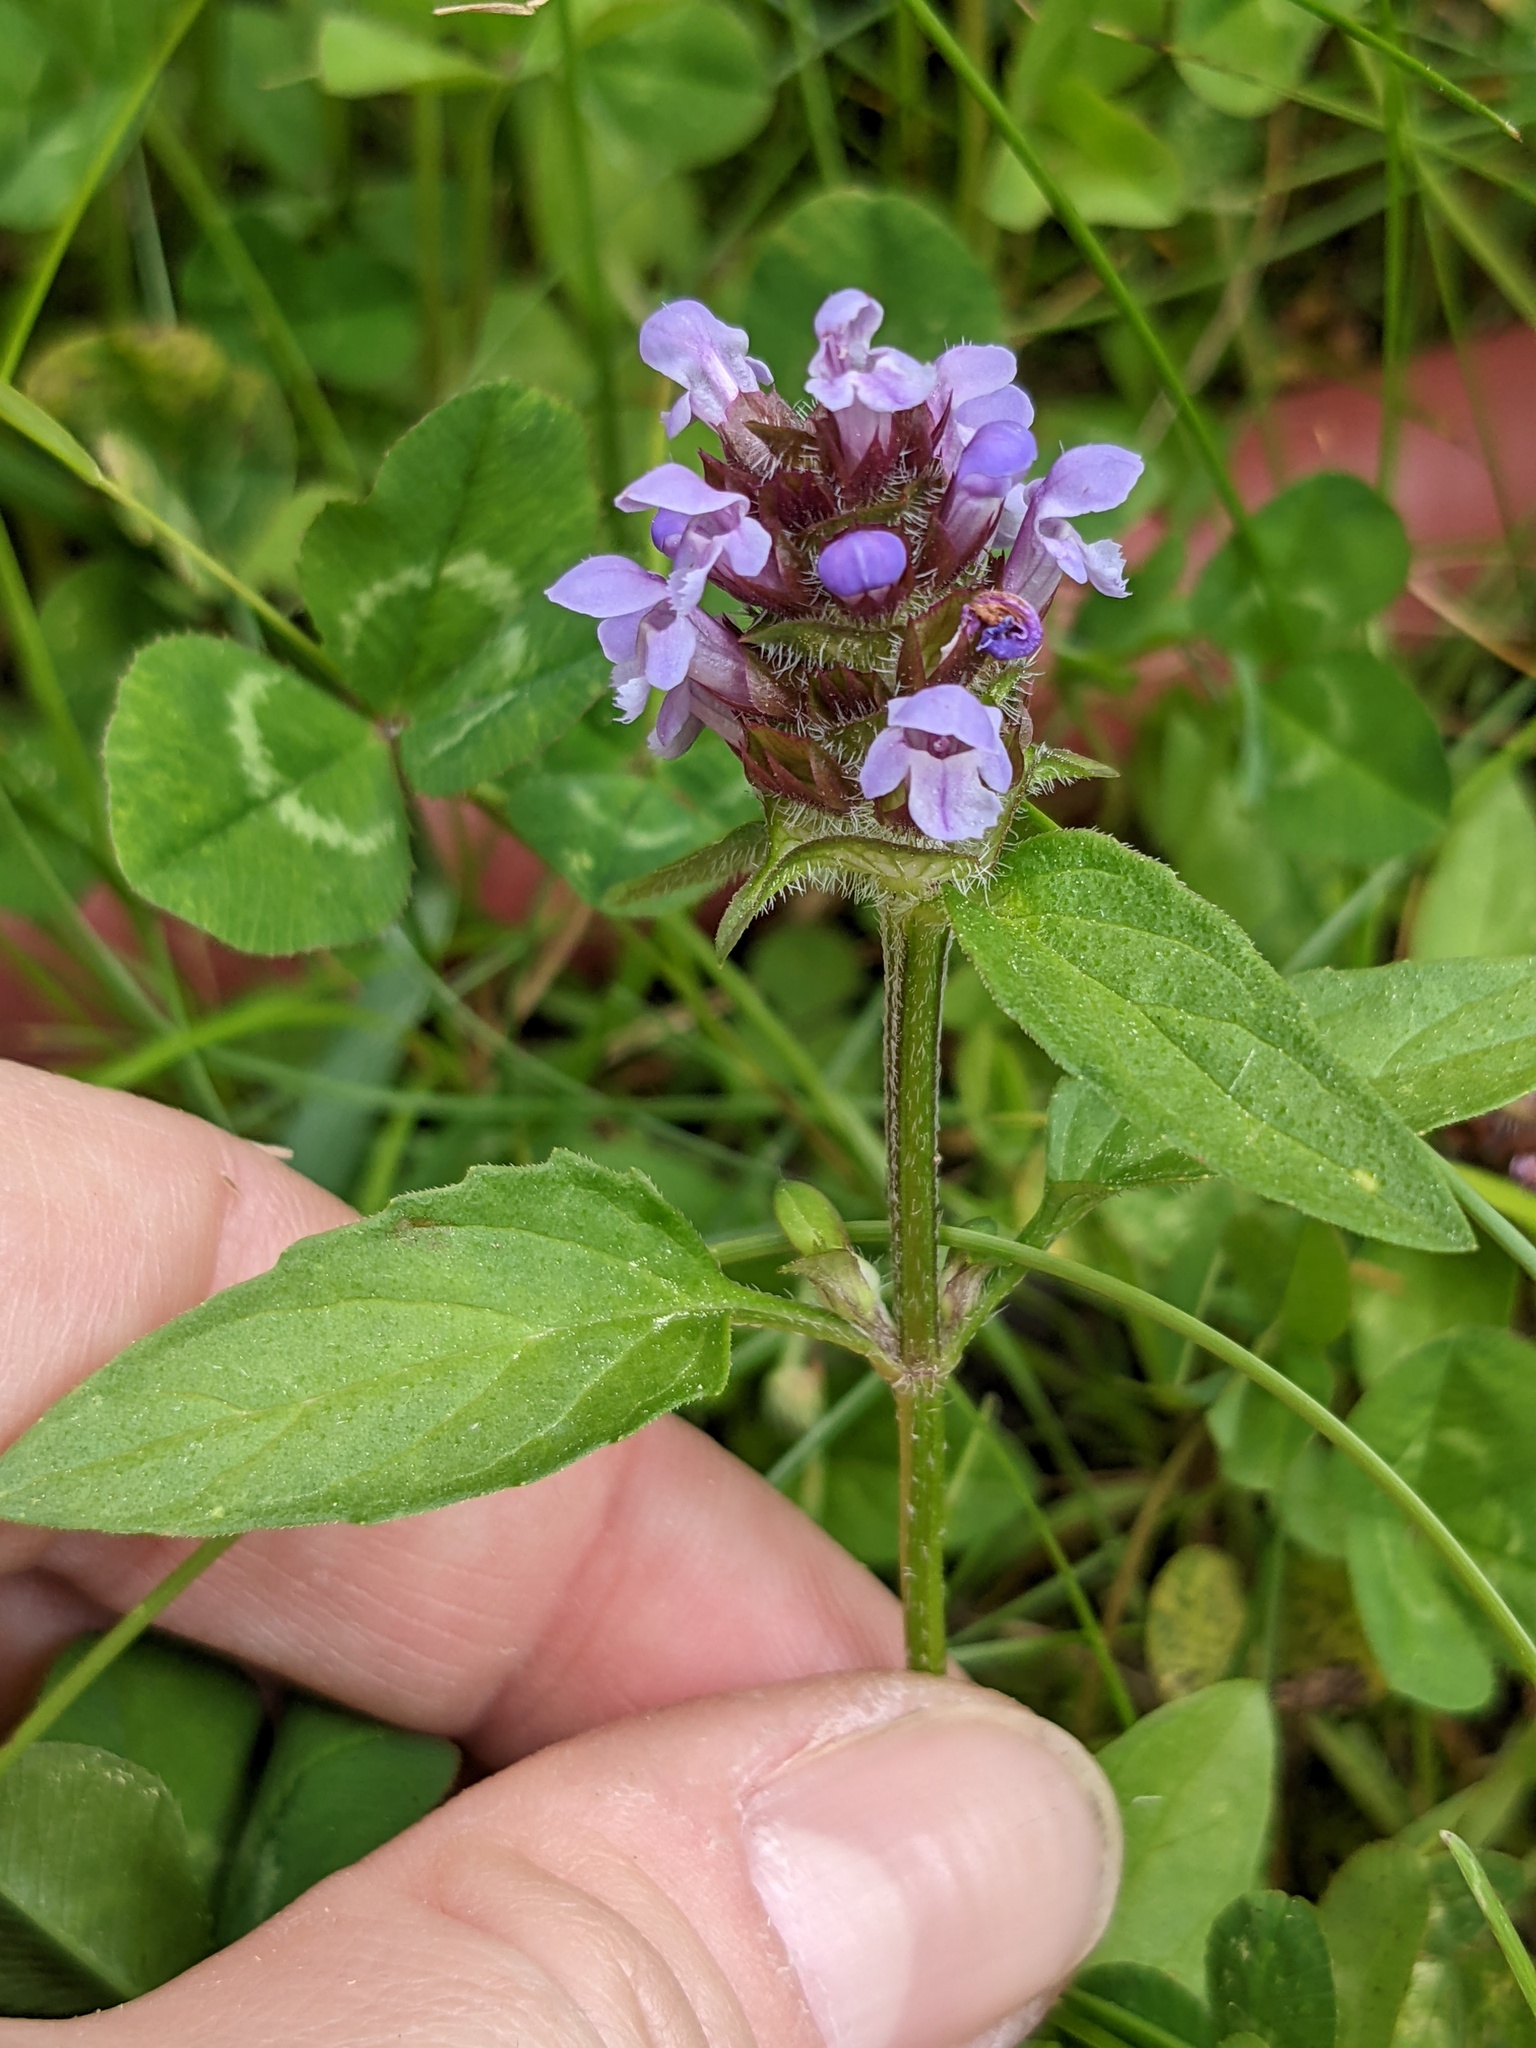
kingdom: Plantae
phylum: Tracheophyta
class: Magnoliopsida
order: Lamiales
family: Lamiaceae
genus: Prunella
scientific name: Prunella vulgaris
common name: Heal-all
